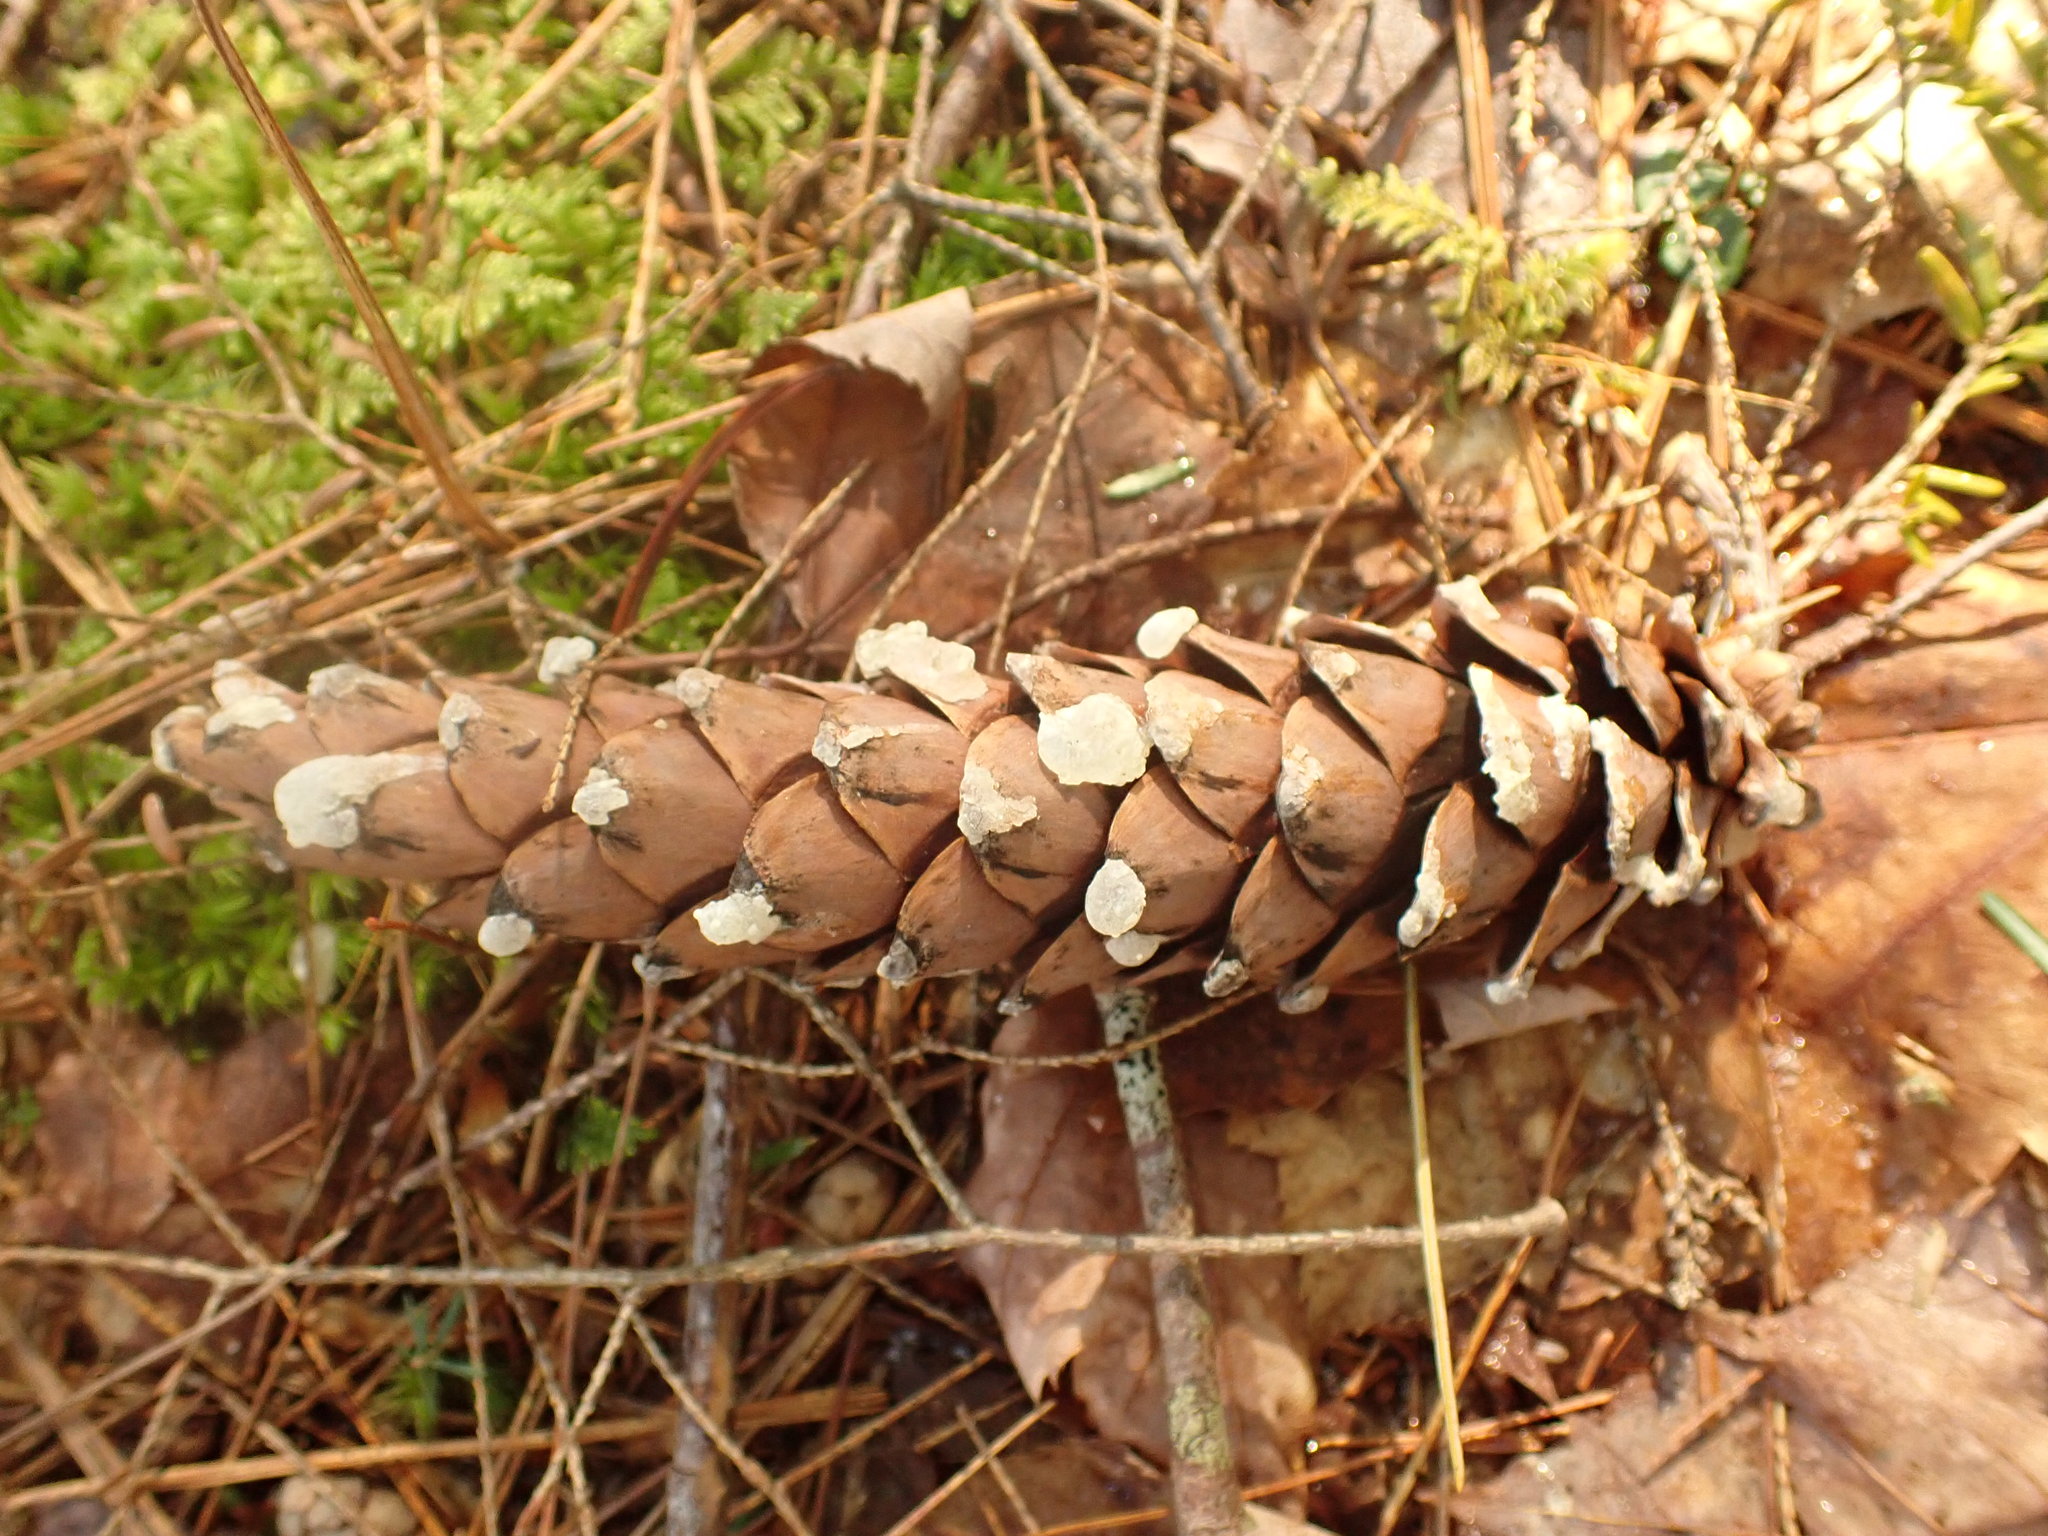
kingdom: Plantae
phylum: Tracheophyta
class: Pinopsida
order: Pinales
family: Pinaceae
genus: Pinus
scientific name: Pinus strobus
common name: Weymouth pine
